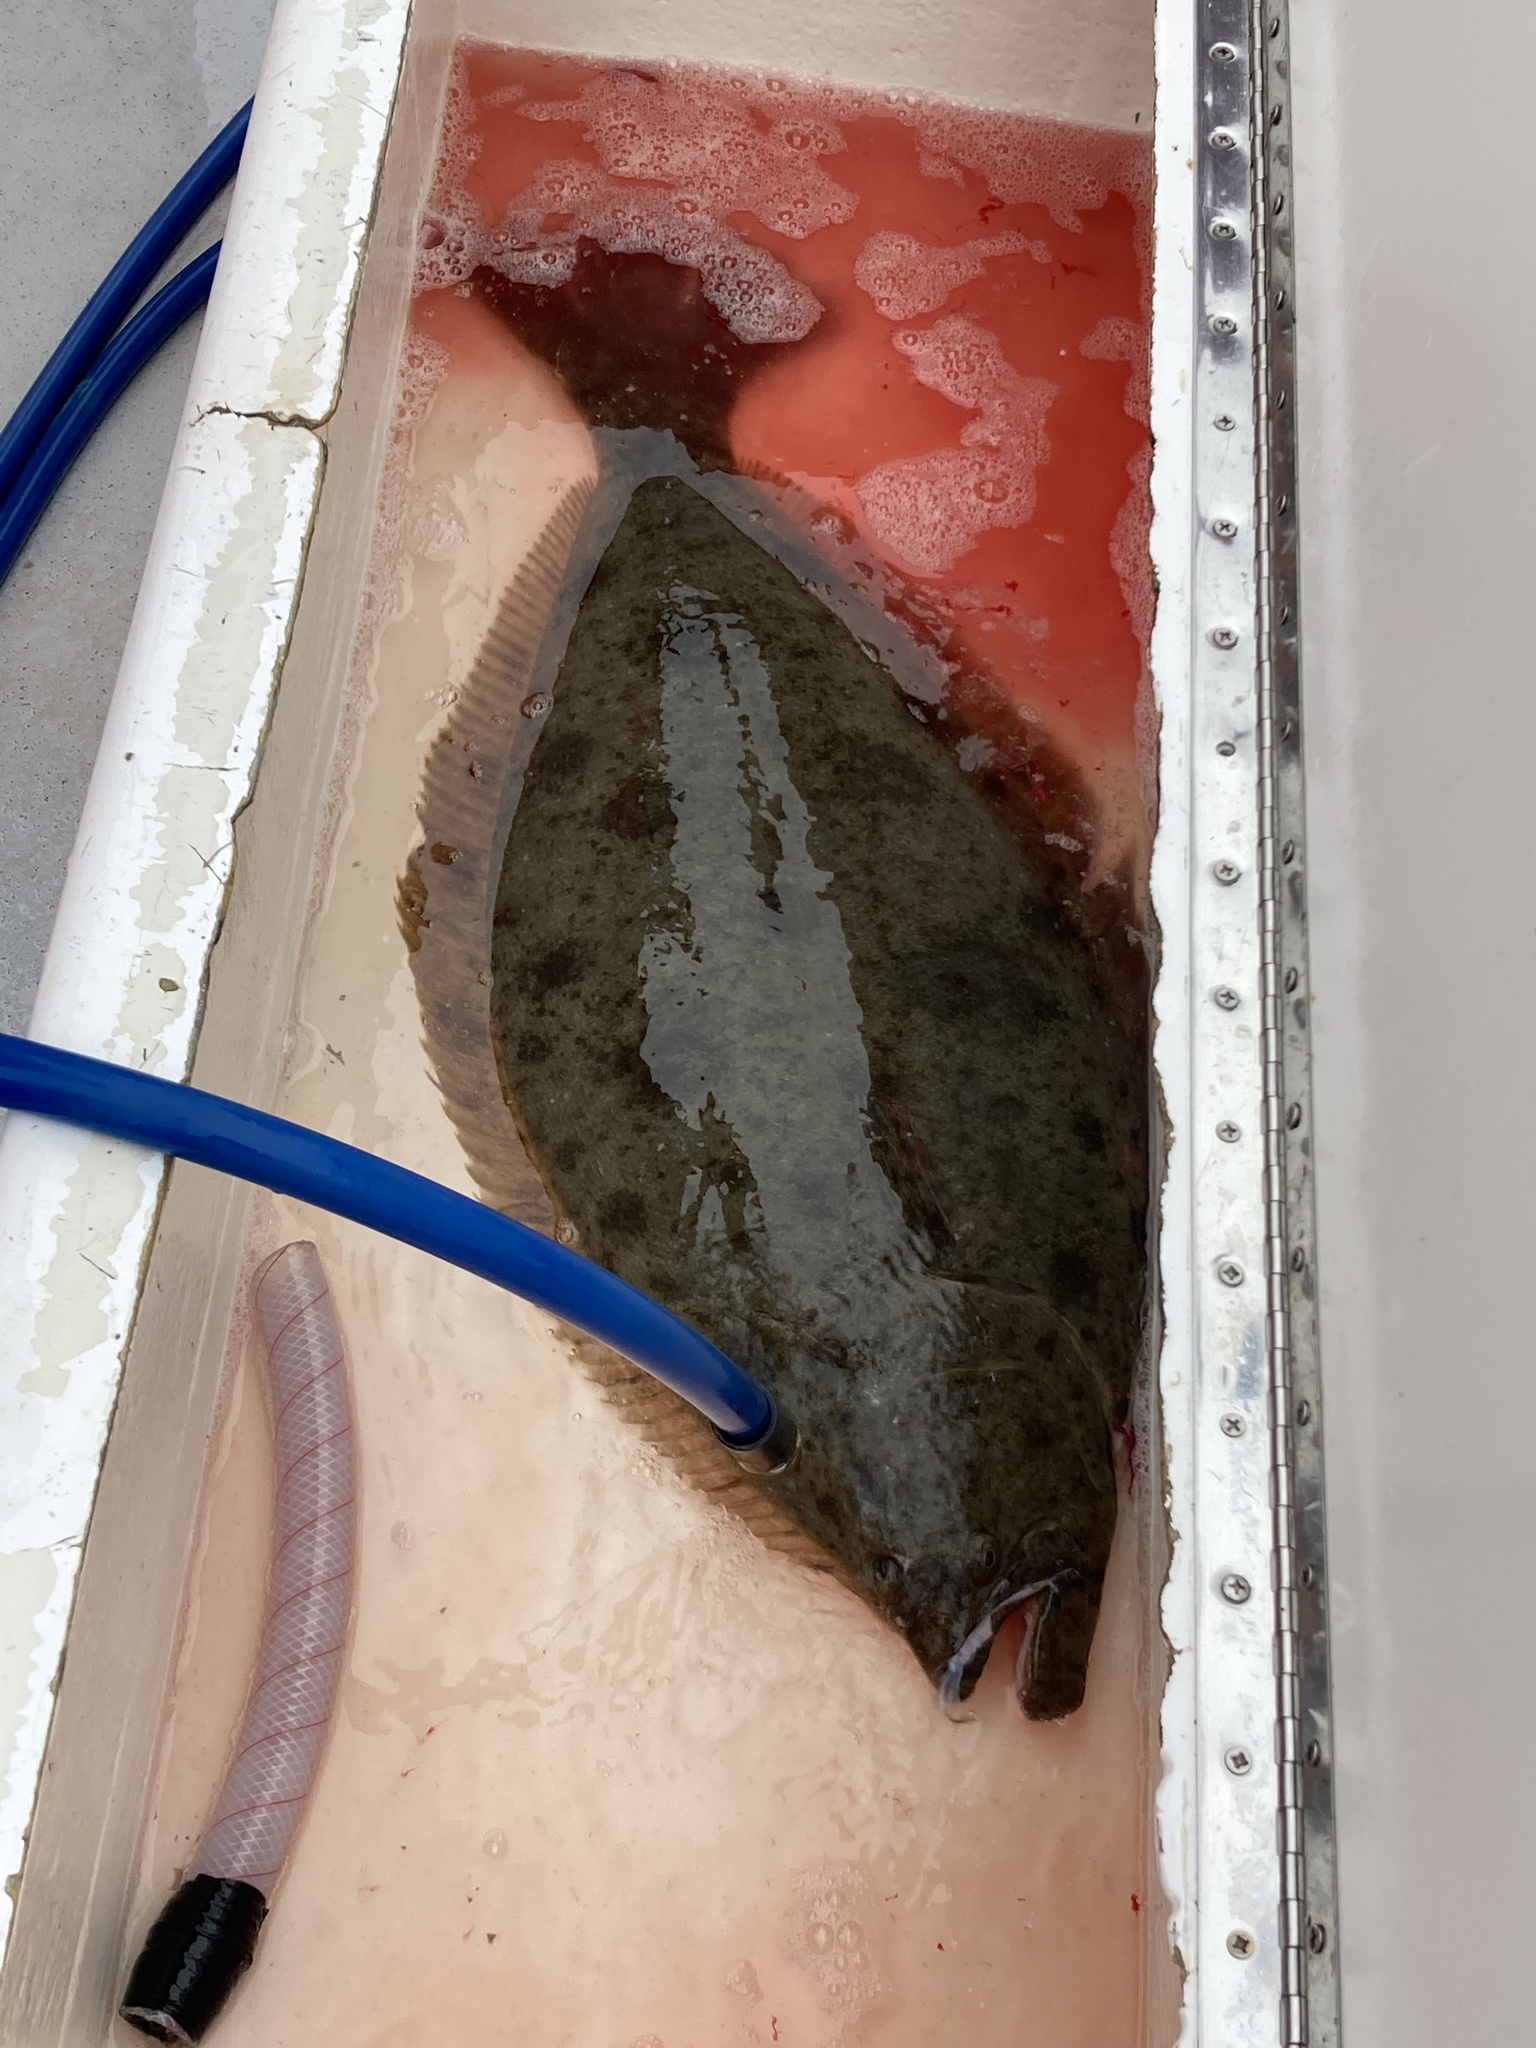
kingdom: Animalia
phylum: Chordata
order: Pleuronectiformes
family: Paralichthyidae
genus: Paralichthys
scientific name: Paralichthys californicus
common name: California halibut
